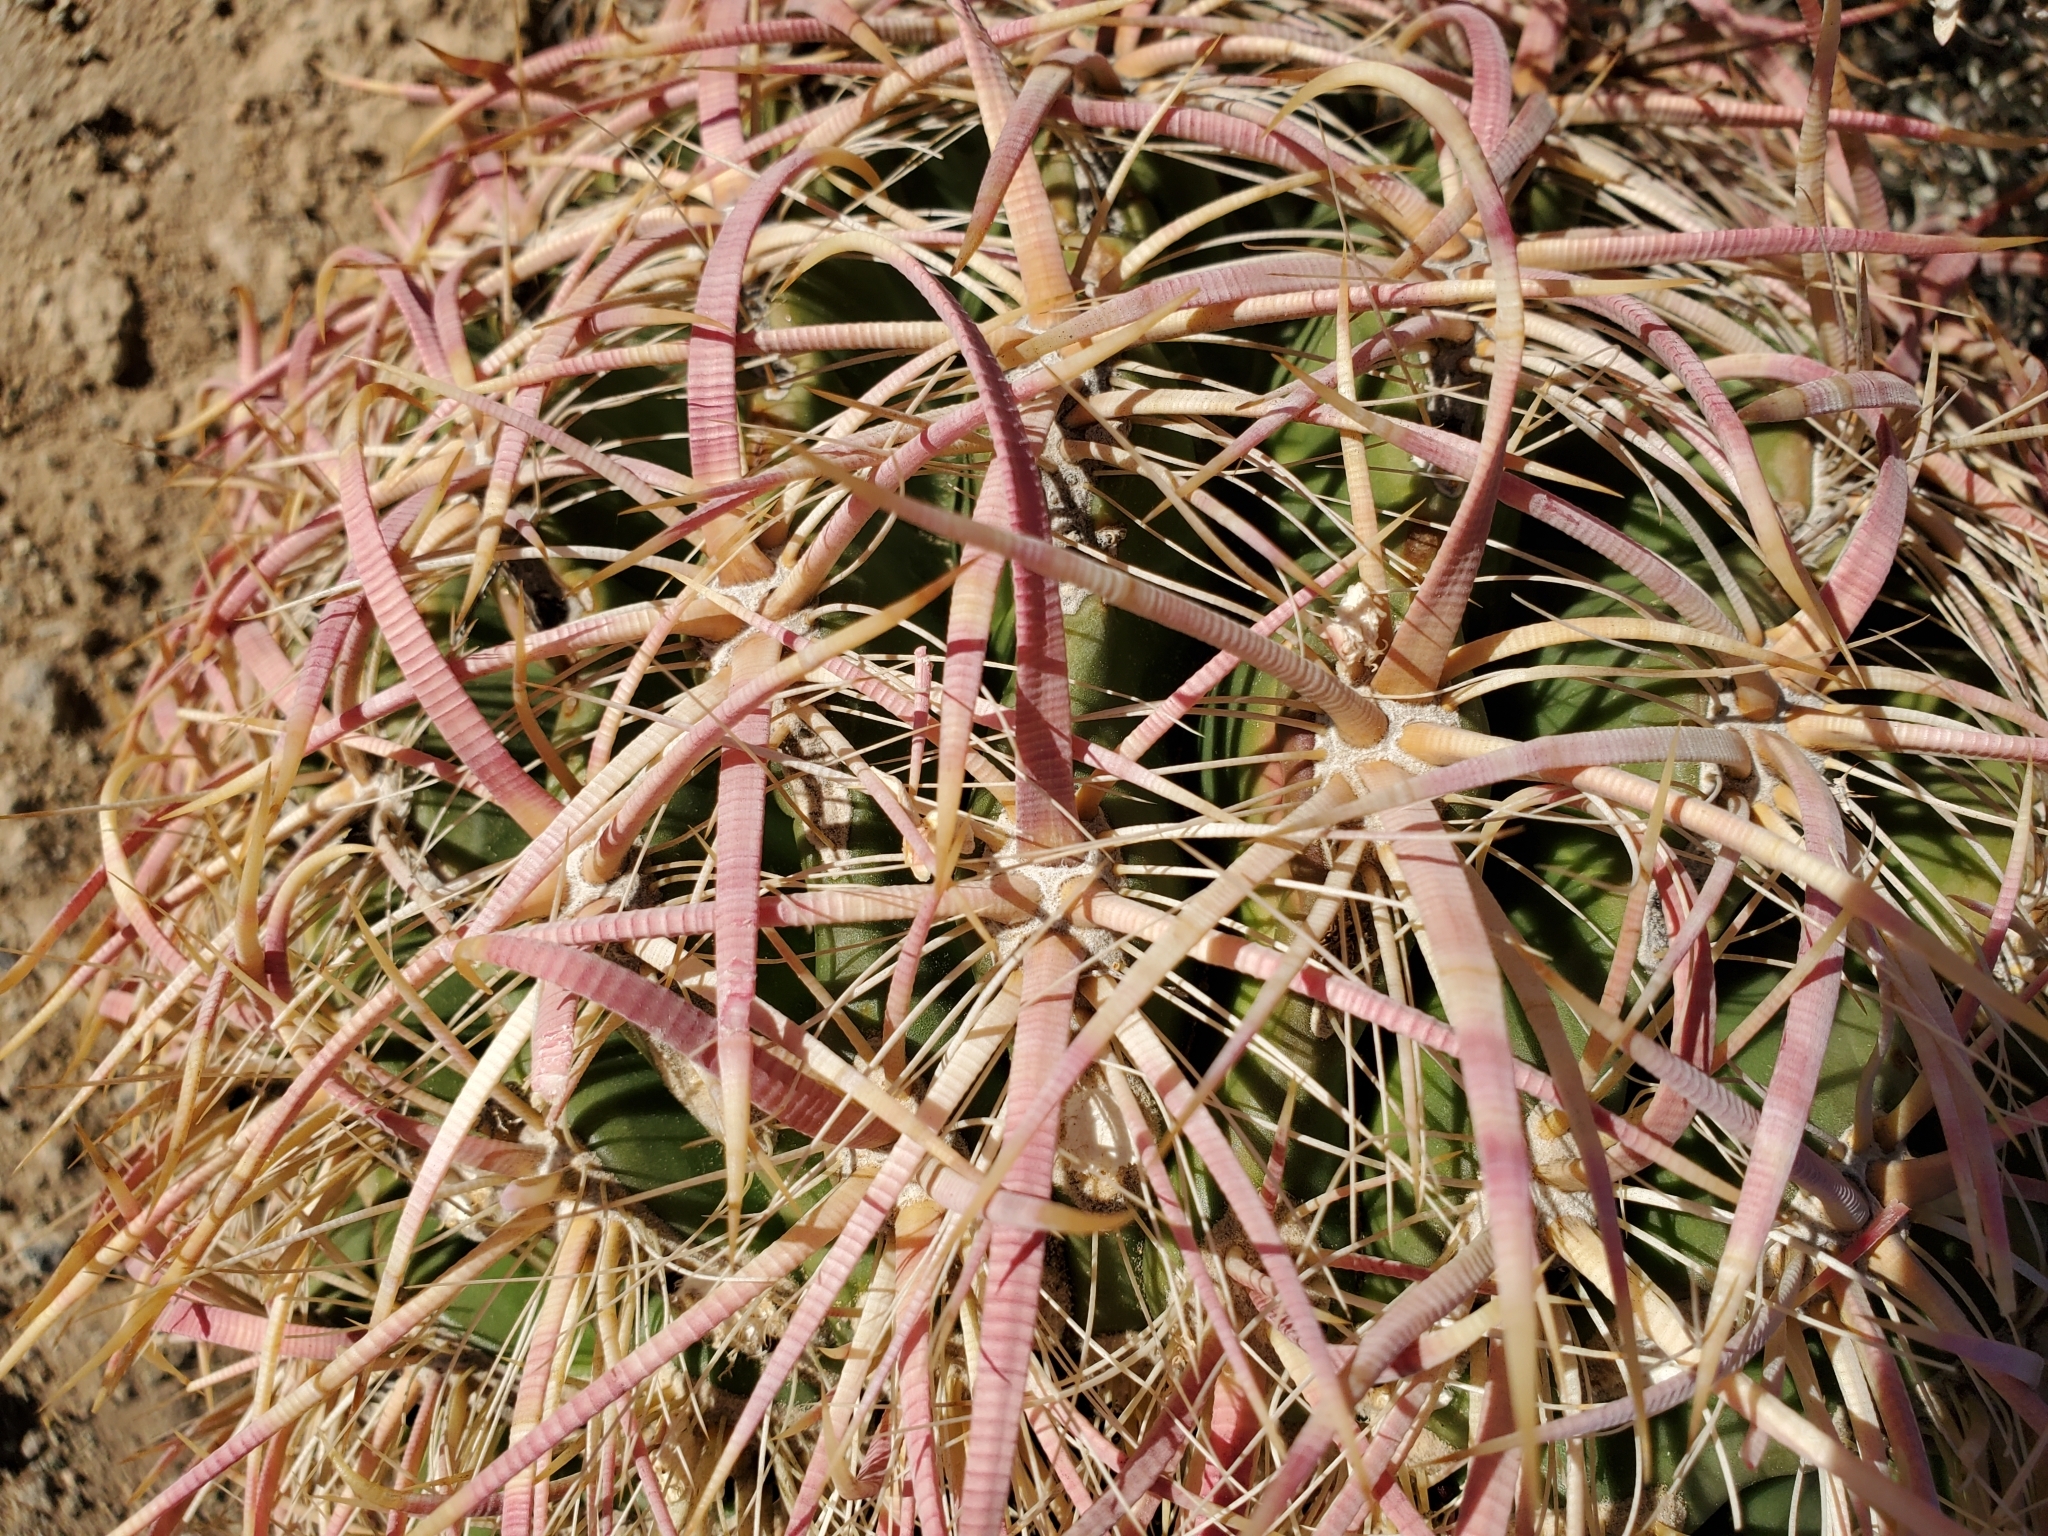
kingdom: Plantae
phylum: Tracheophyta
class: Magnoliopsida
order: Caryophyllales
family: Cactaceae
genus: Ferocactus
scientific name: Ferocactus cylindraceus
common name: California barrel cactus
